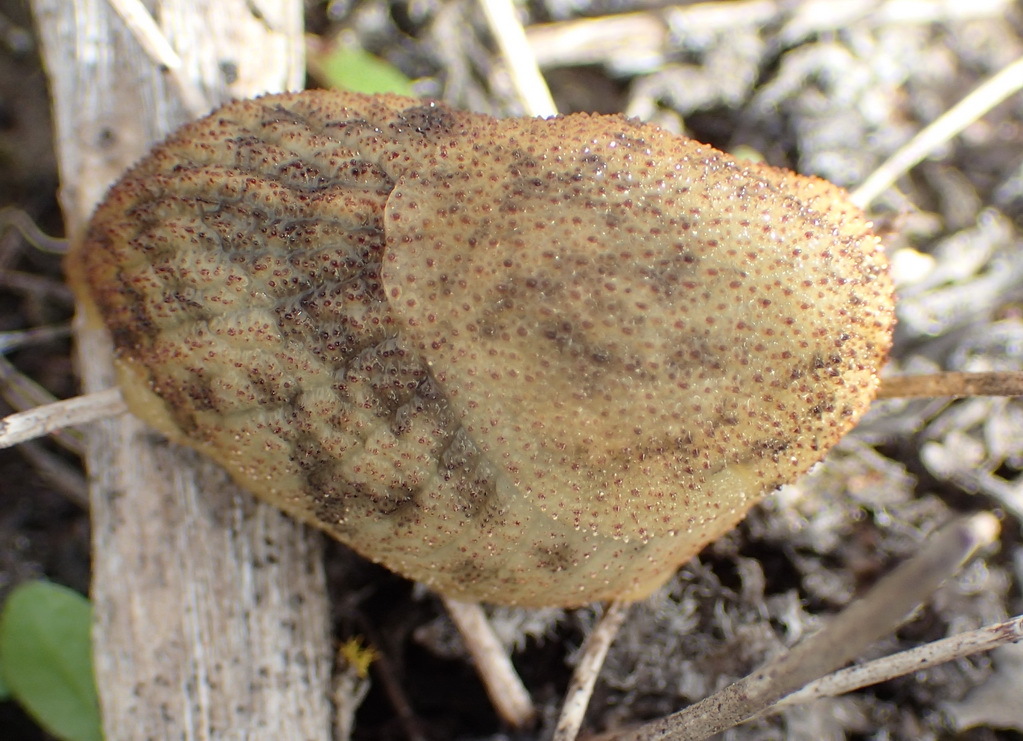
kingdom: Animalia
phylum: Mollusca
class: Gastropoda
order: Stylommatophora
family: Oopeltidae
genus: Oopelta
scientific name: Oopelta capensis
